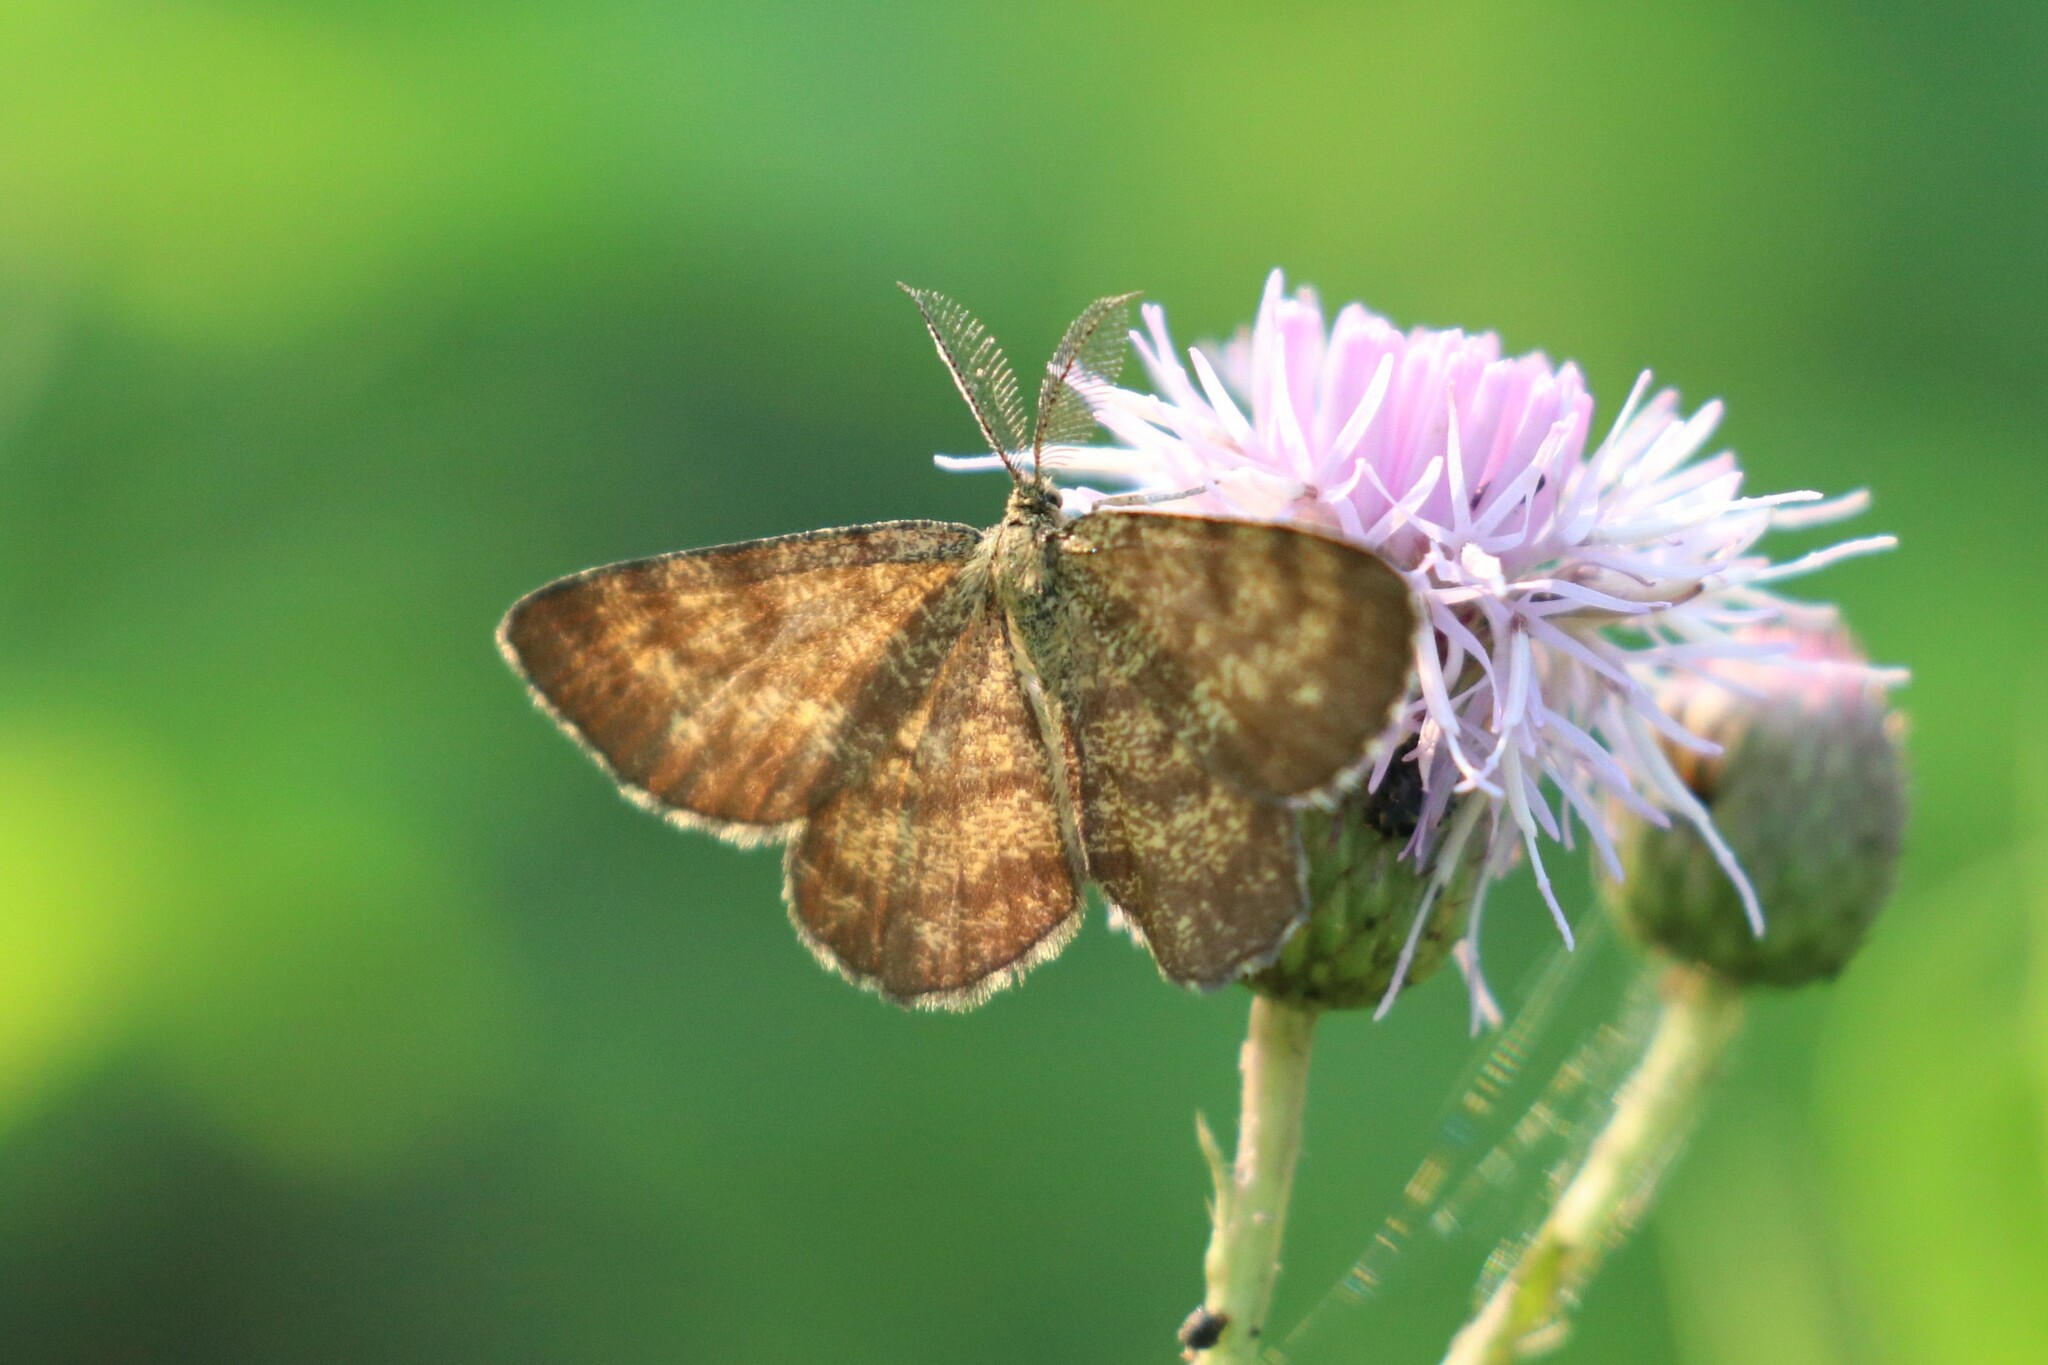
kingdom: Animalia
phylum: Arthropoda
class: Insecta
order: Lepidoptera
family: Geometridae
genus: Ematurga
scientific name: Ematurga atomaria
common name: Common heath
